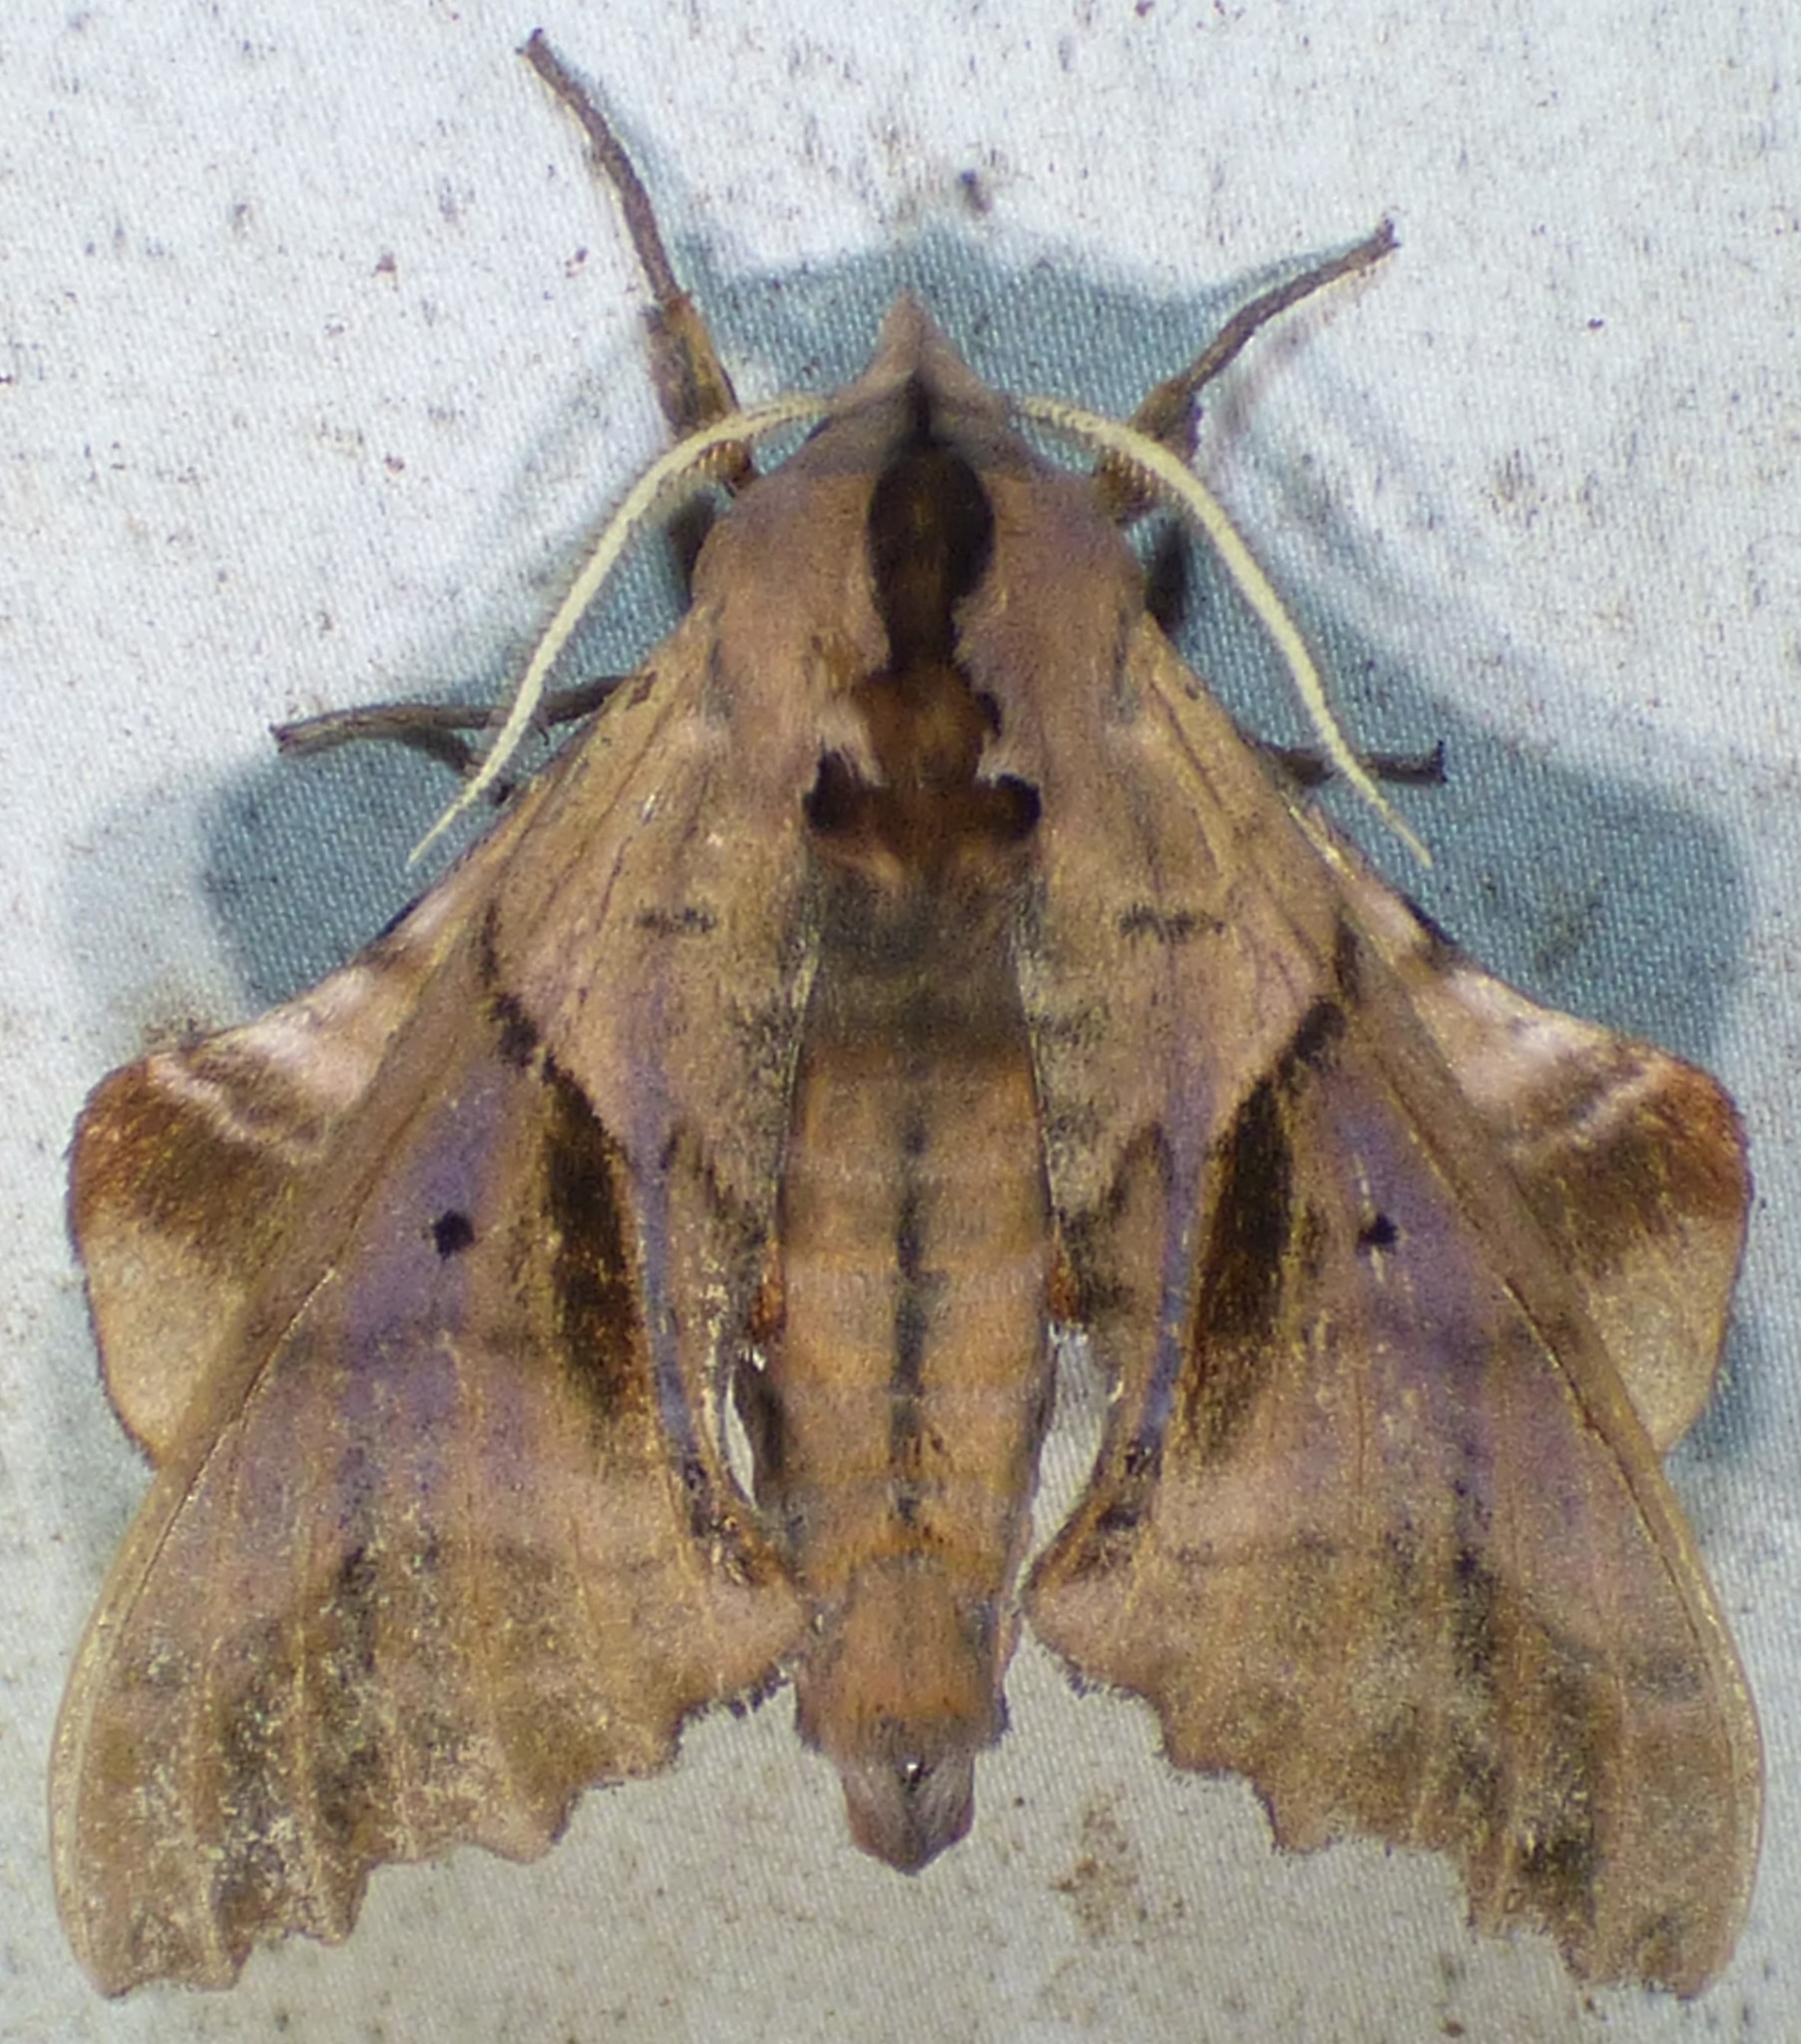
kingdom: Animalia
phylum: Arthropoda
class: Insecta
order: Lepidoptera
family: Sphingidae
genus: Paonias
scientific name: Paonias excaecata
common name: Blind-eyed sphinx
